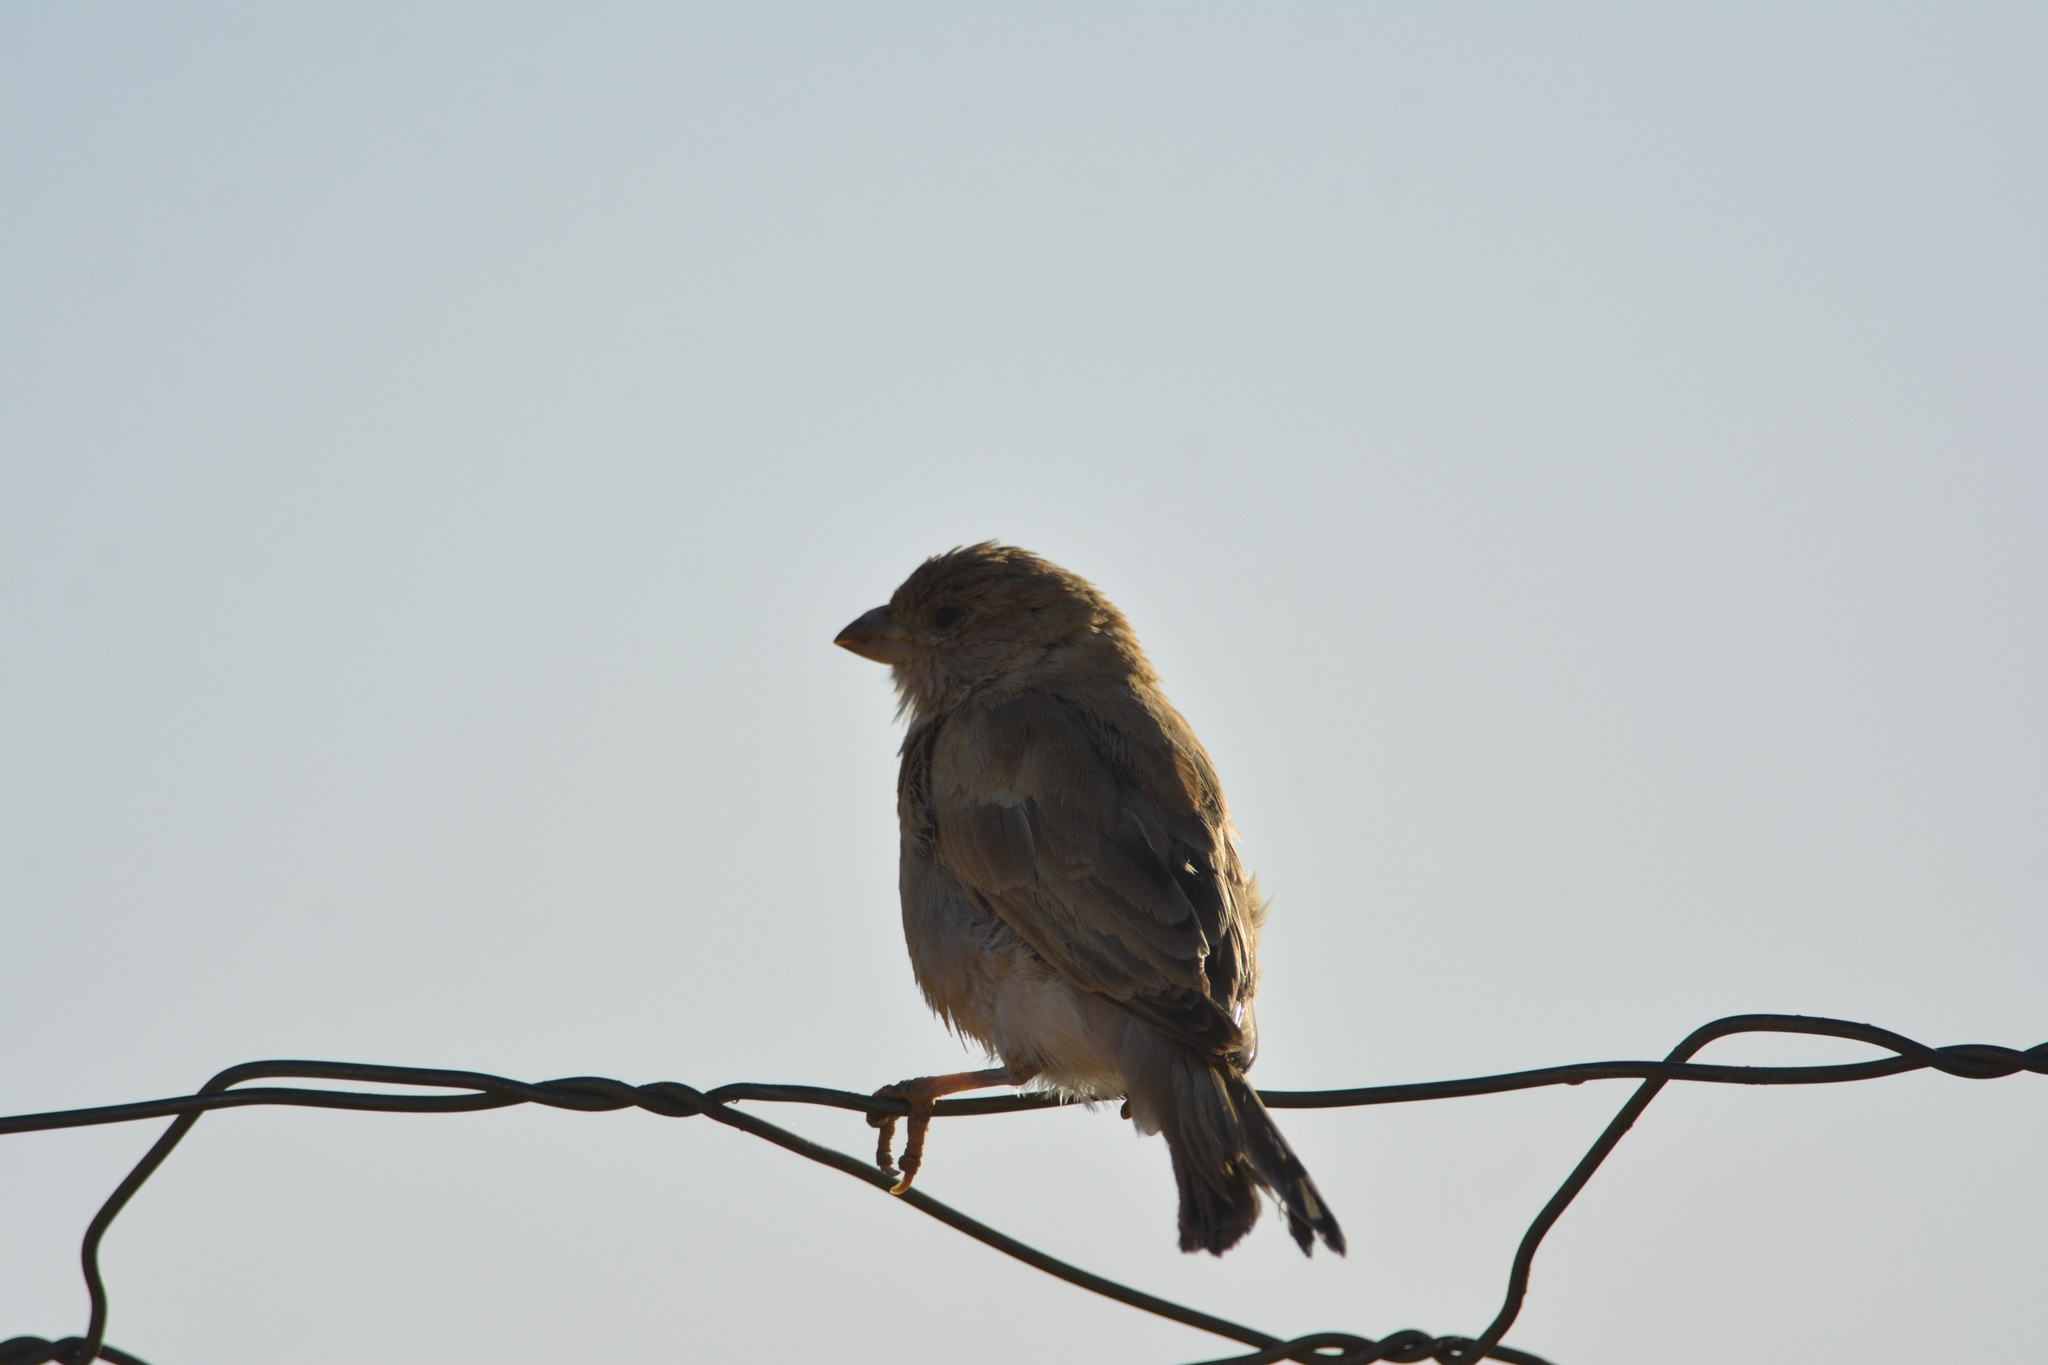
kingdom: Animalia
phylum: Chordata
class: Aves
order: Passeriformes
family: Passeridae
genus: Passer
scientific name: Passer simplex
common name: Desert sparrow
